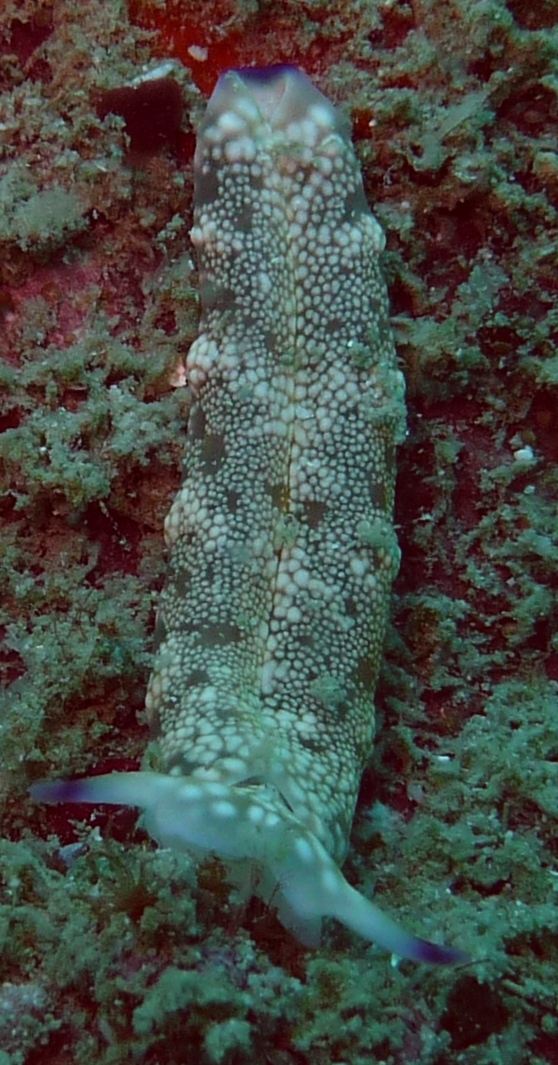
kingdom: Animalia
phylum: Mollusca
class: Gastropoda
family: Plakobranchidae
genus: Plakobranchus
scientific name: Plakobranchus papua
